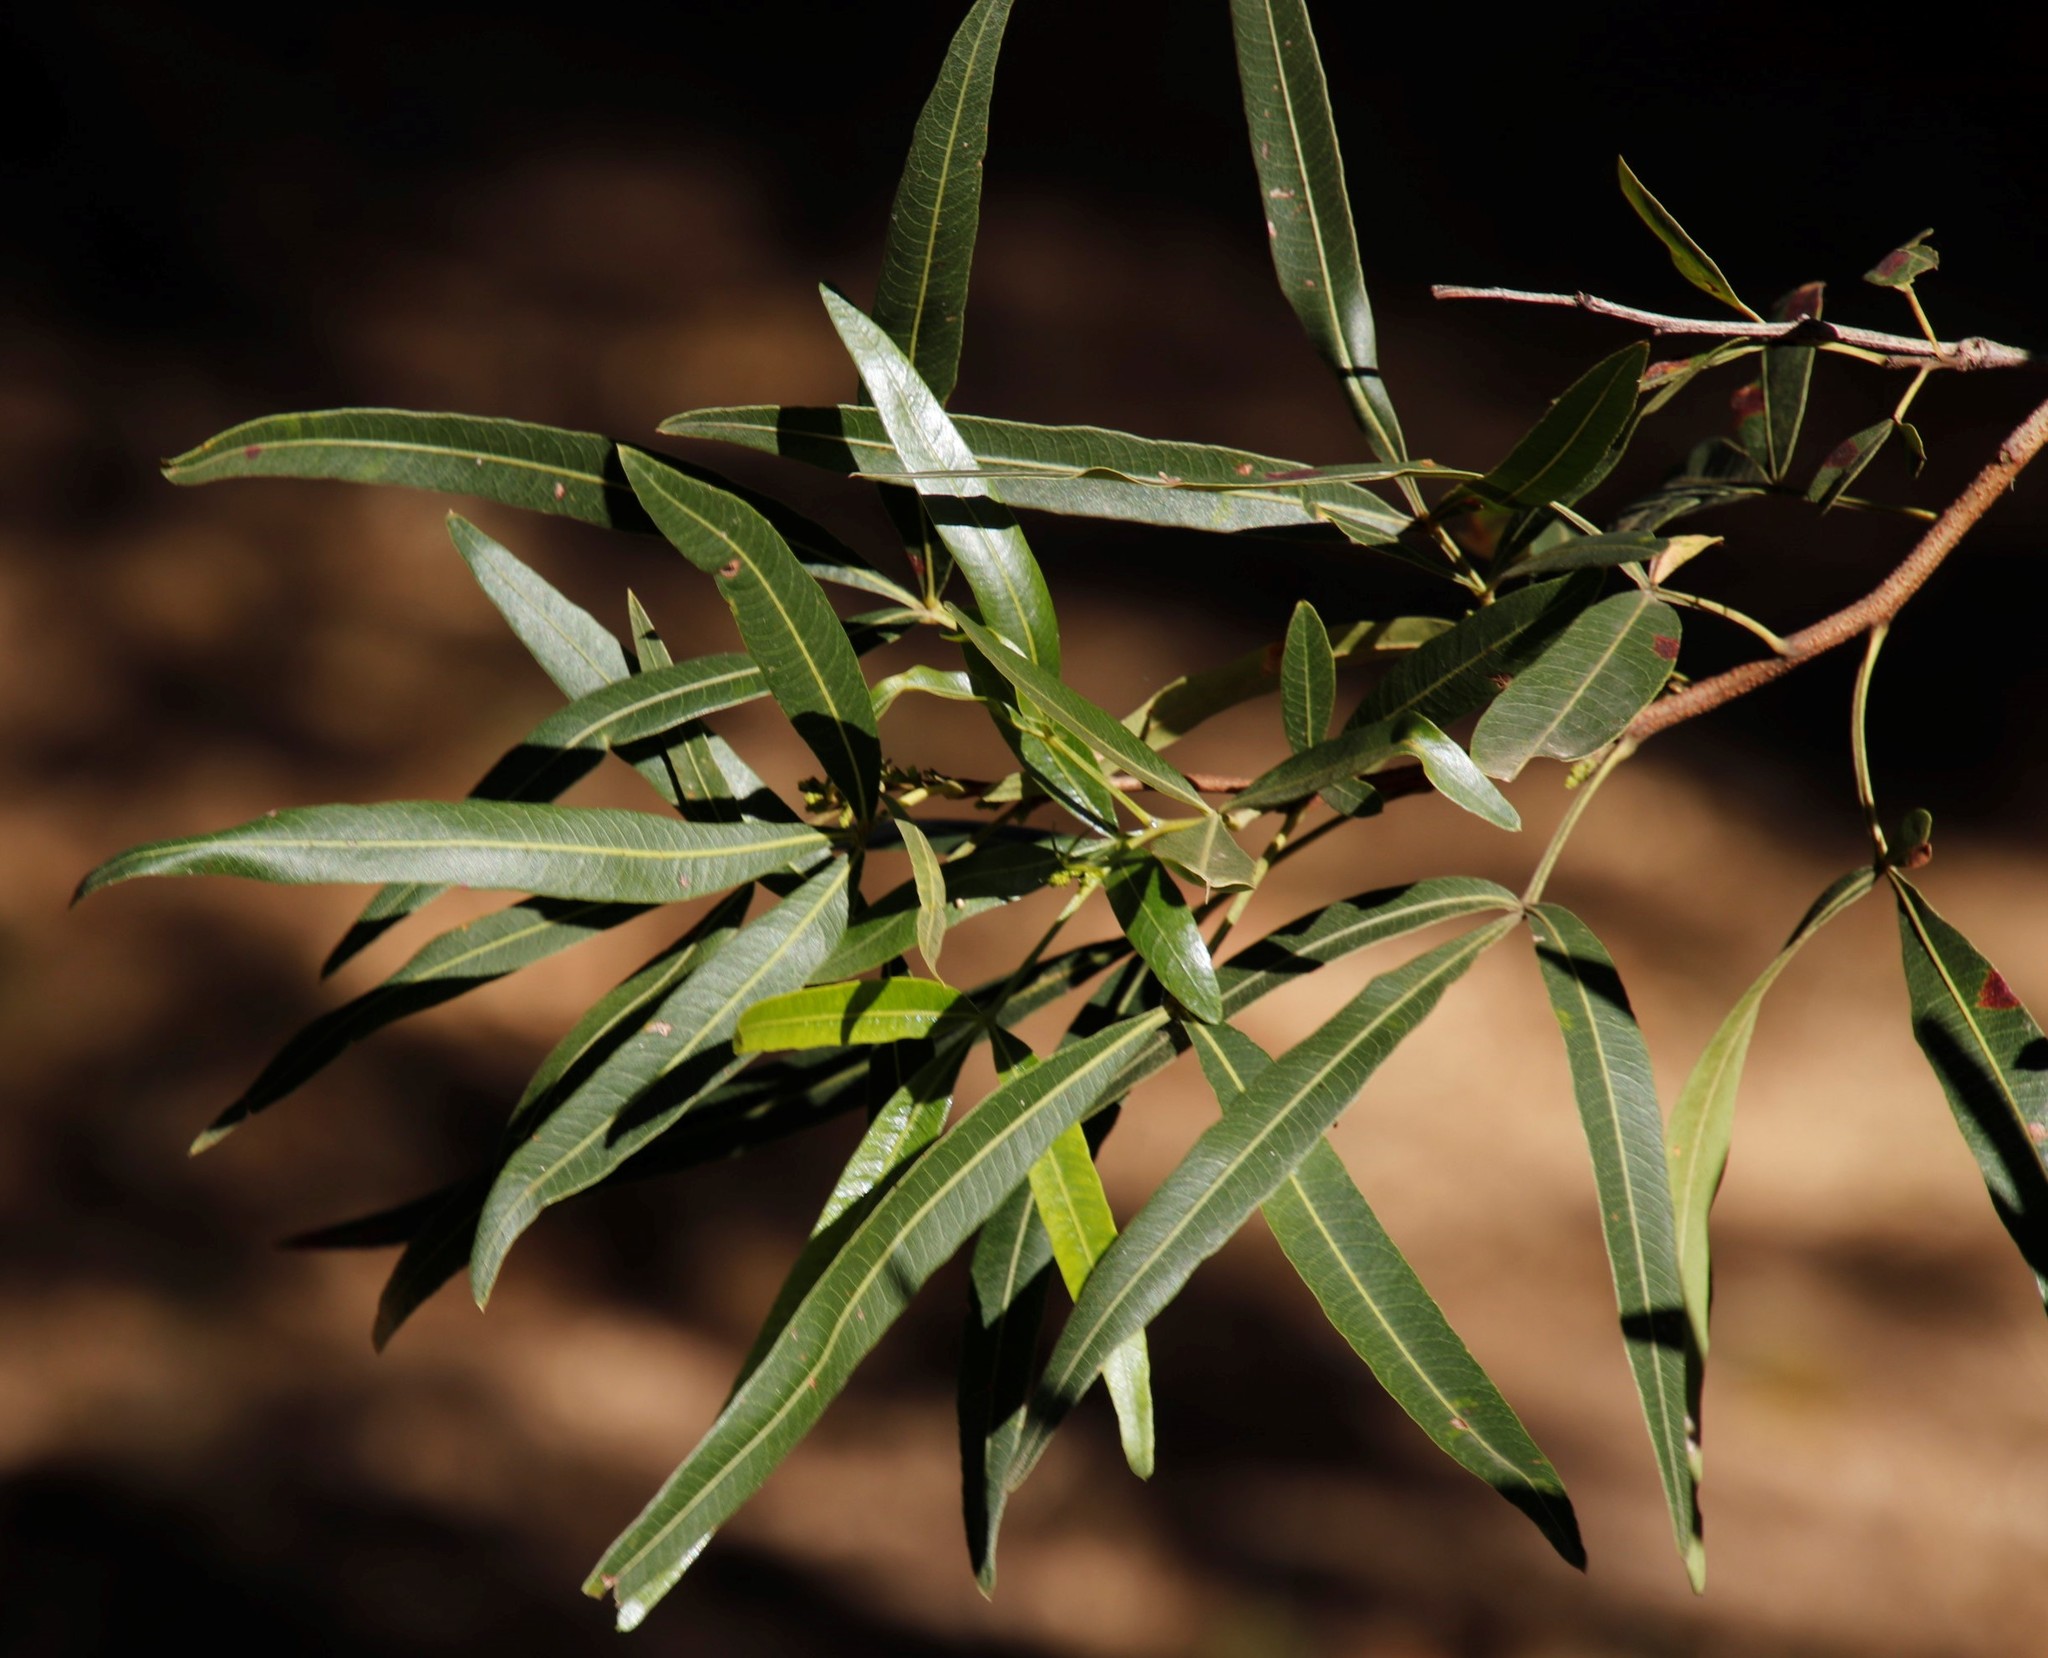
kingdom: Plantae
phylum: Tracheophyta
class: Magnoliopsida
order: Sapindales
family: Anacardiaceae
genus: Searsia
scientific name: Searsia leptodictya
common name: Mountain karee
